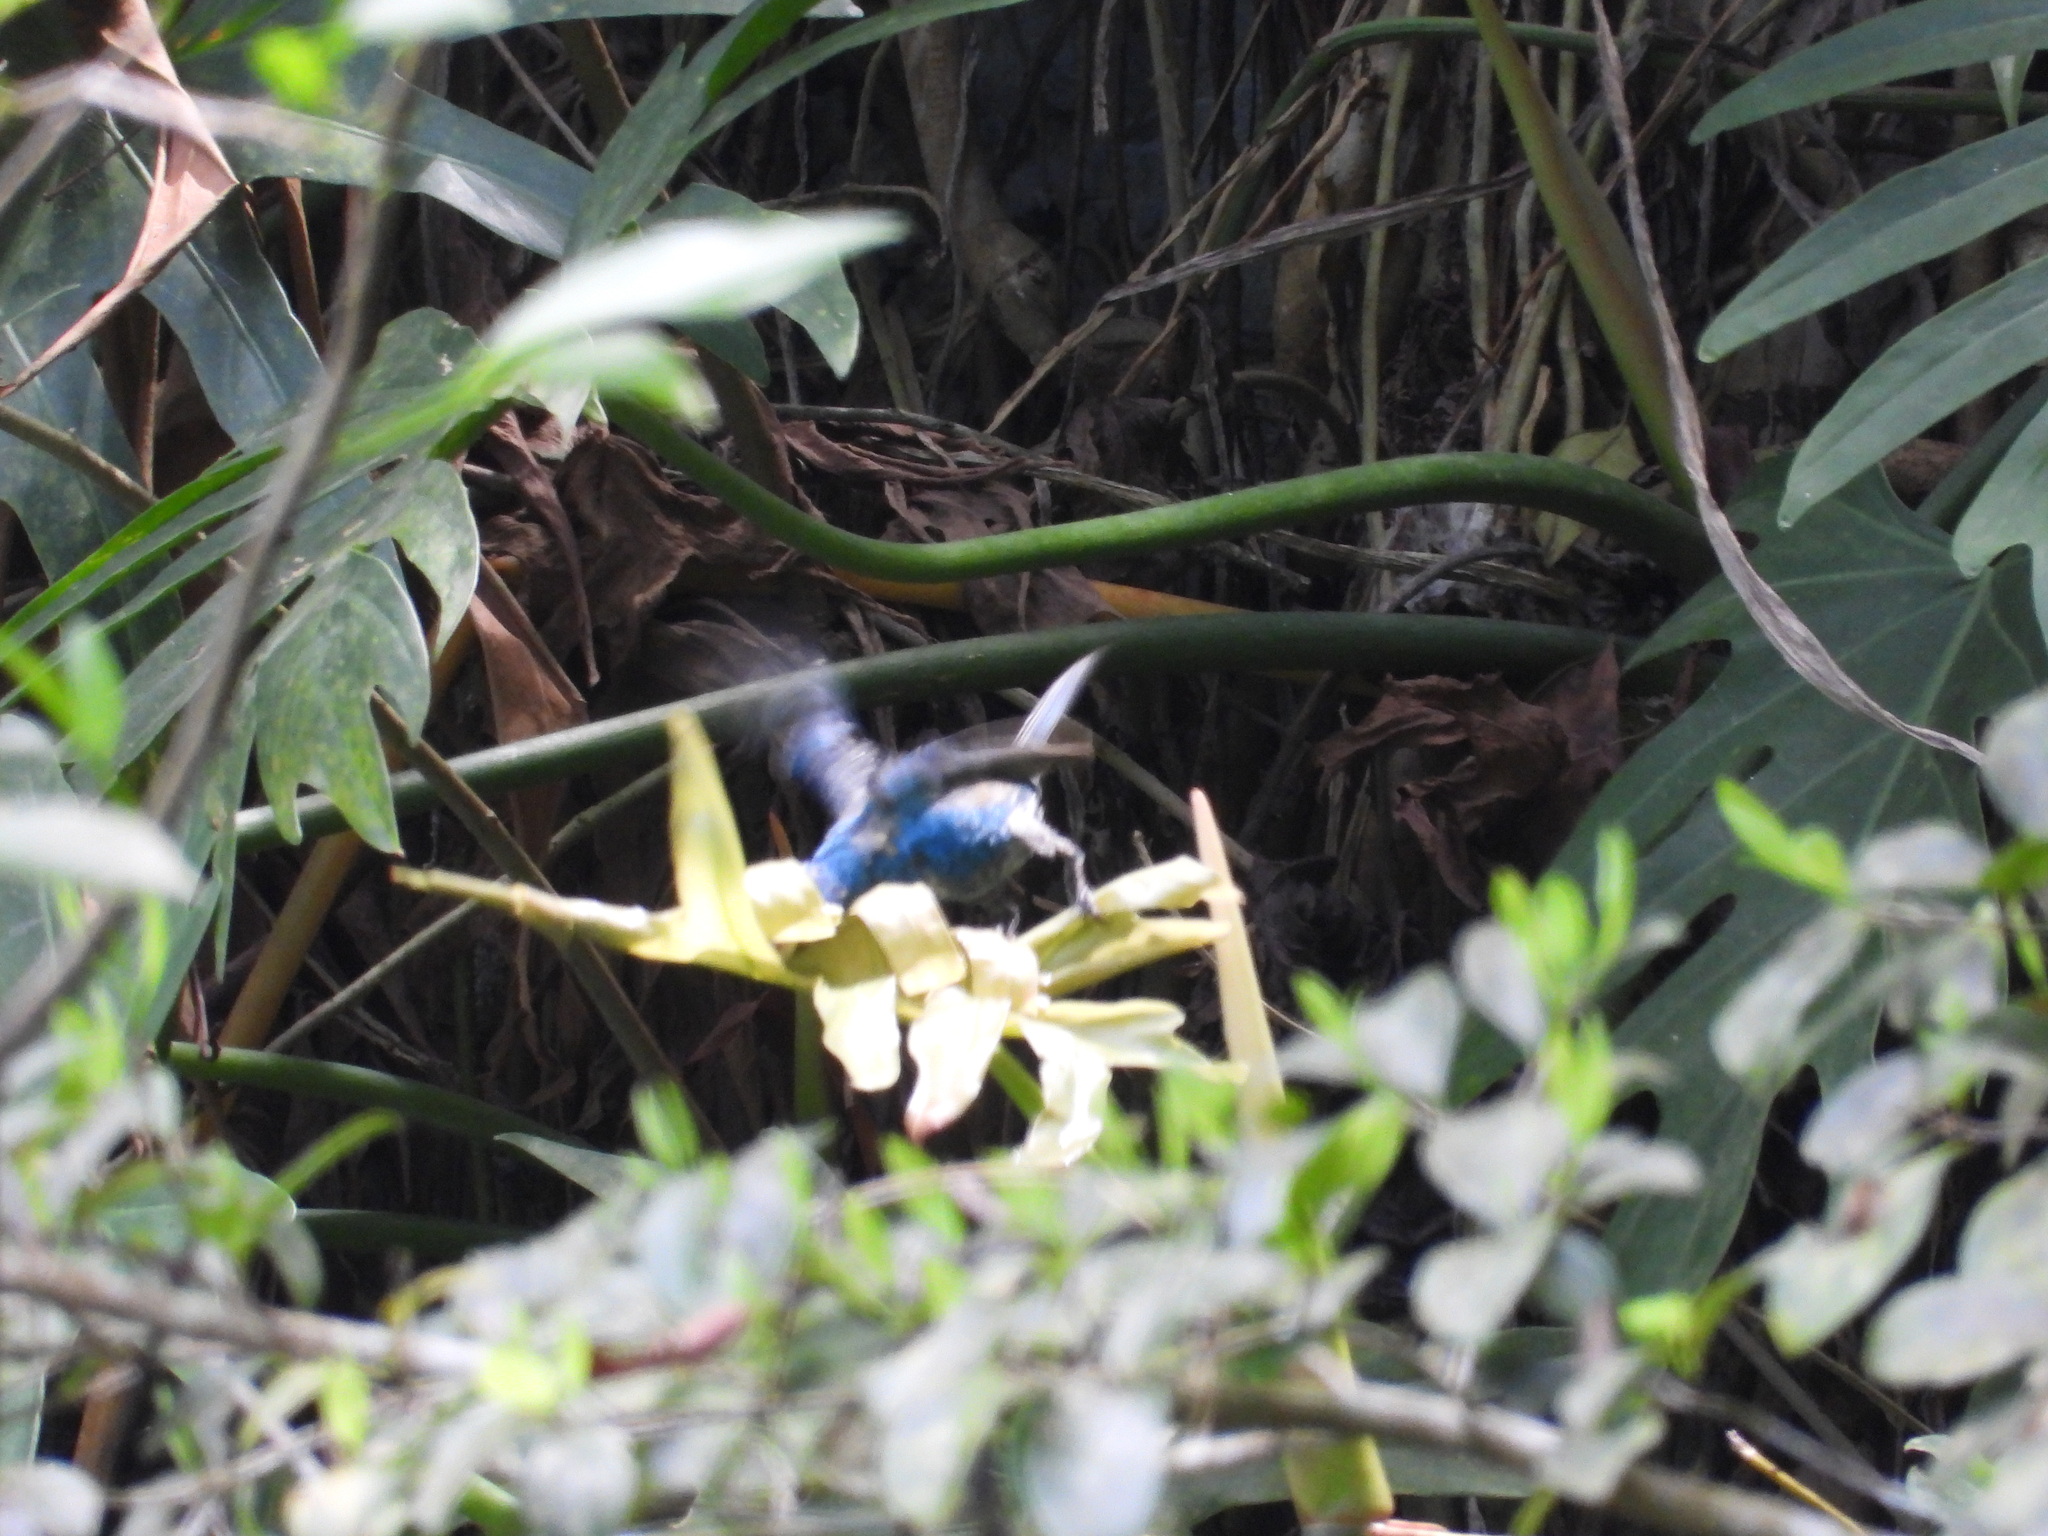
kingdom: Animalia
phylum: Chordata
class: Aves
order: Passeriformes
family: Cardinalidae
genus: Passerina
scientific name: Passerina cyanea
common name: Indigo bunting
